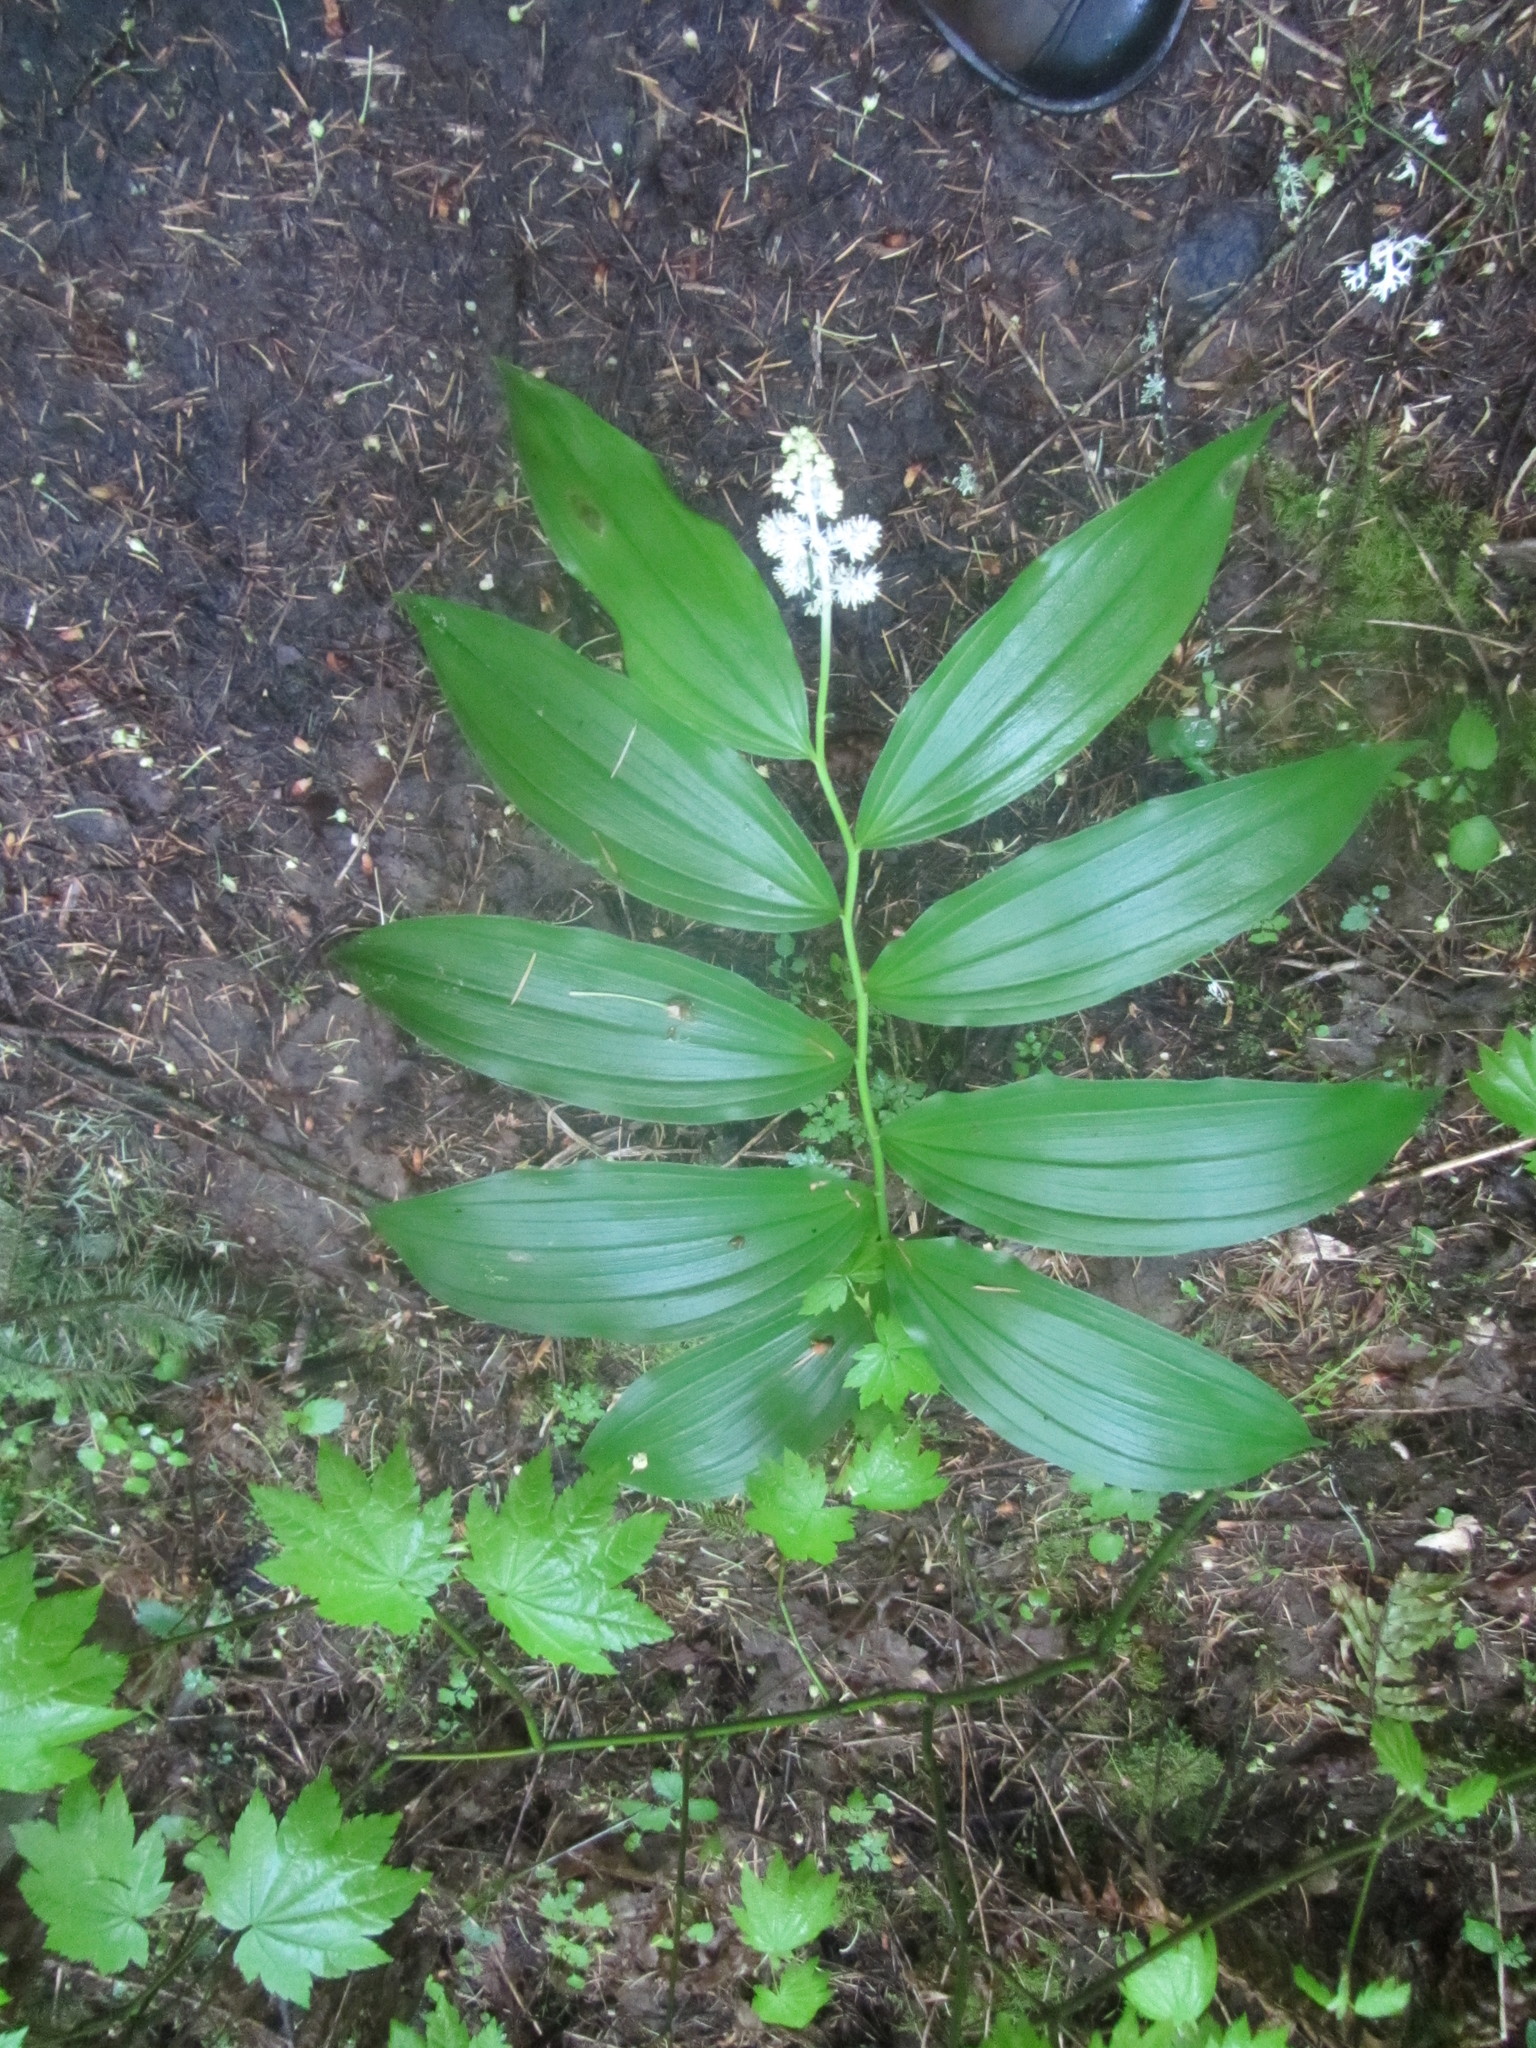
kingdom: Plantae
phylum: Tracheophyta
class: Liliopsida
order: Asparagales
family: Asparagaceae
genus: Maianthemum
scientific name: Maianthemum racemosum
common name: False spikenard
